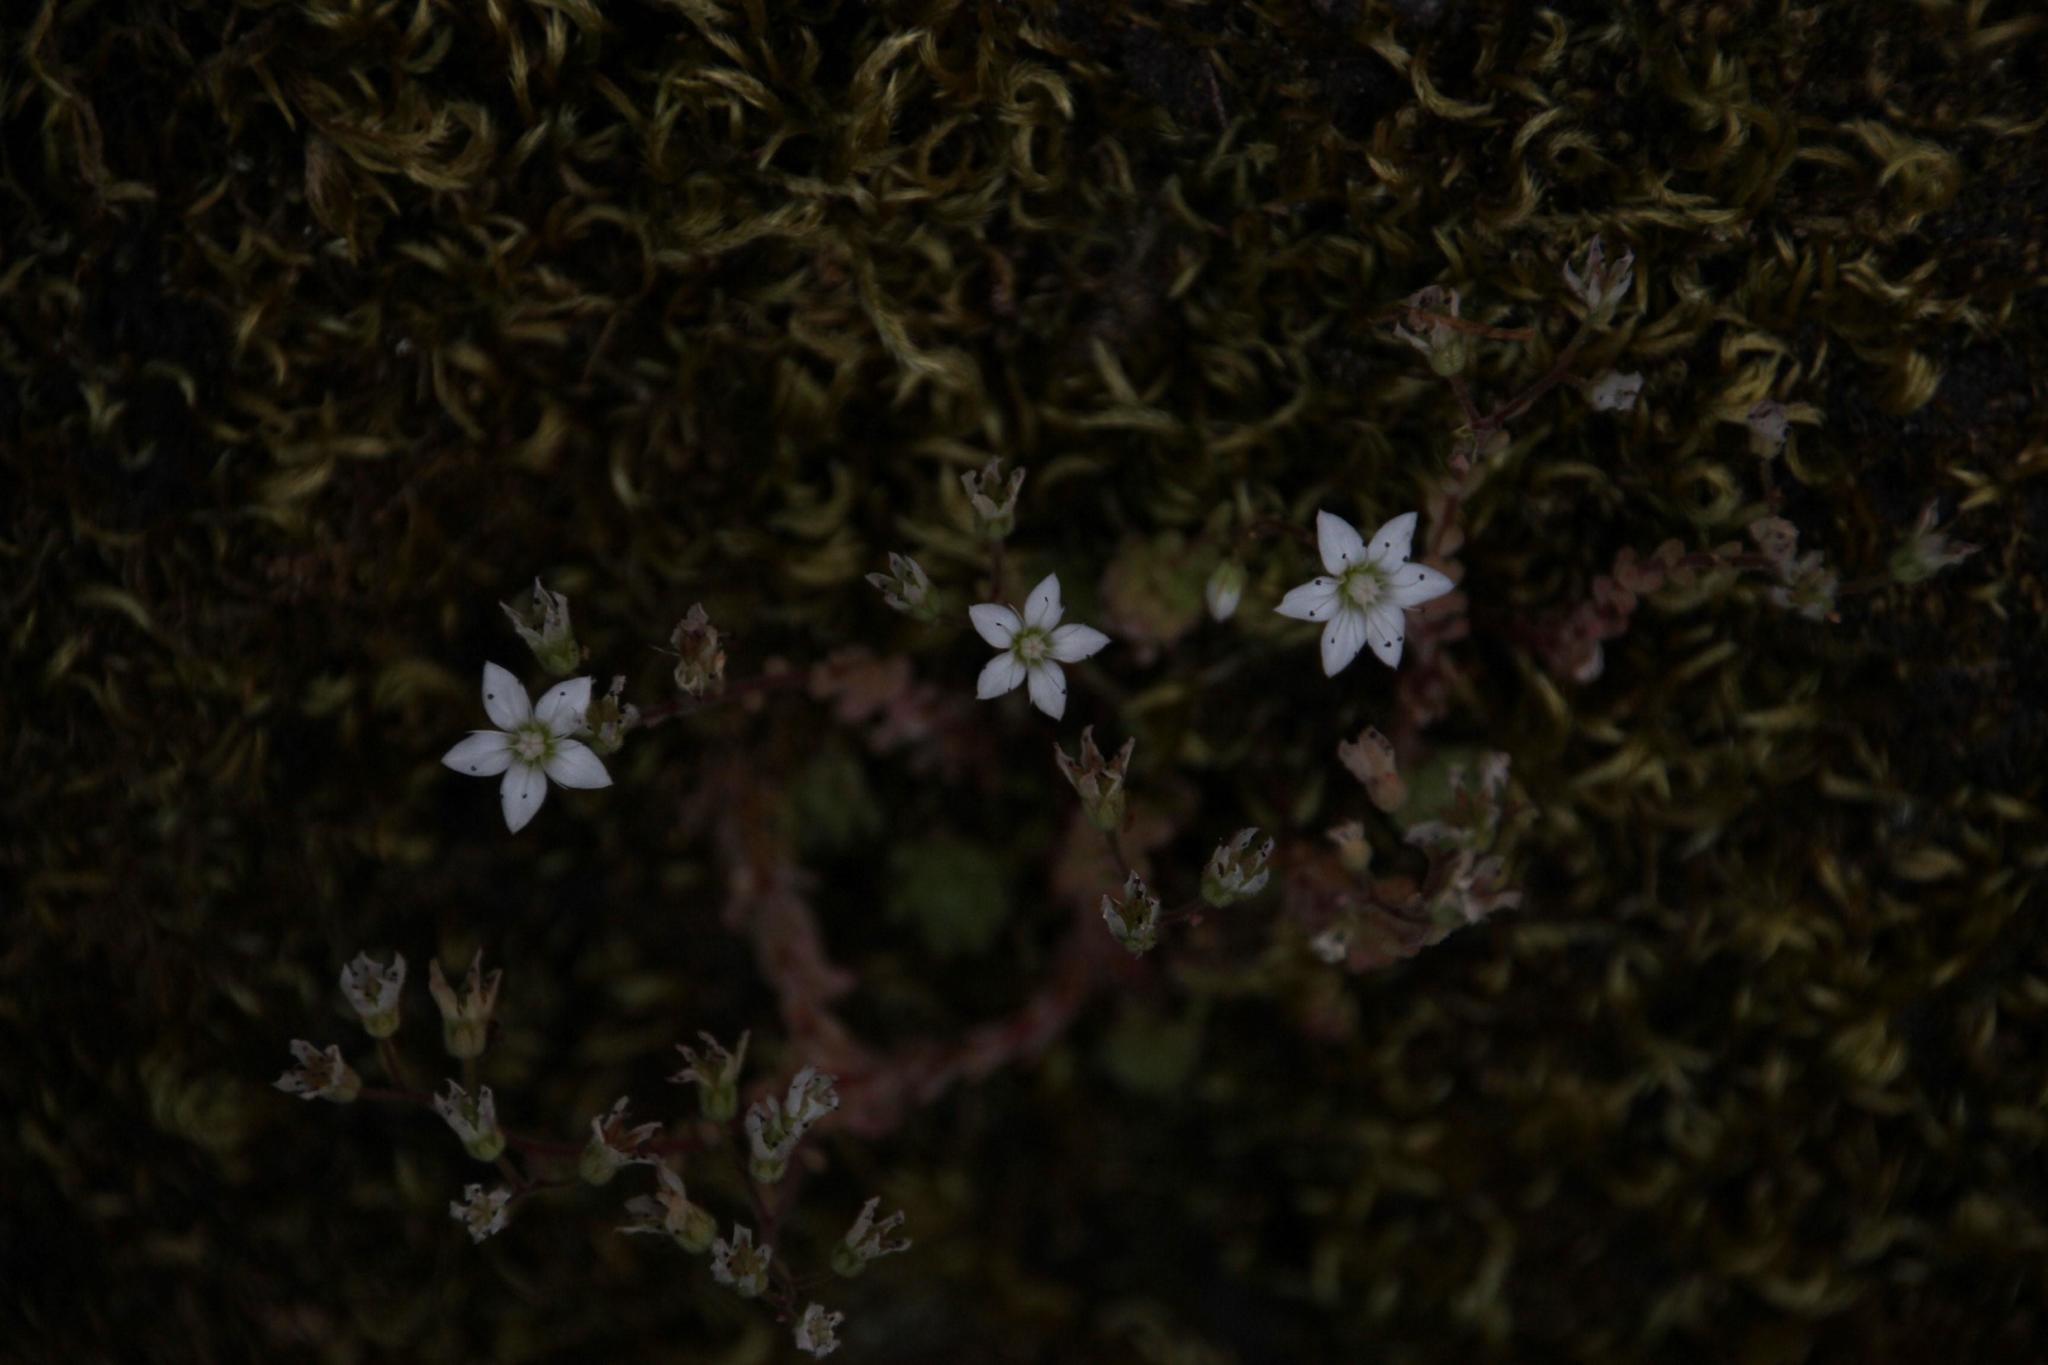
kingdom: Plantae
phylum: Tracheophyta
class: Magnoliopsida
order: Saxifragales
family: Crassulaceae
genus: Sedum
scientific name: Sedum hirsutum
